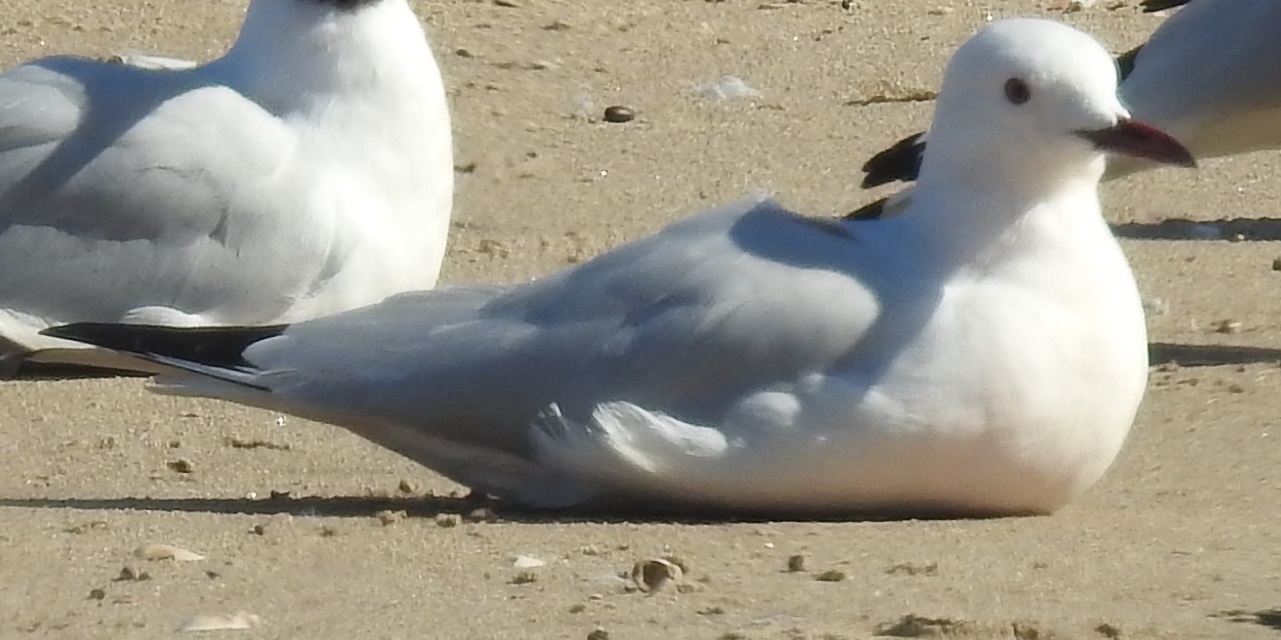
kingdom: Animalia
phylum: Chordata
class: Aves
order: Charadriiformes
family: Laridae
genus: Ichthyaetus
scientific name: Ichthyaetus audouinii
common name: Audouin's gull
